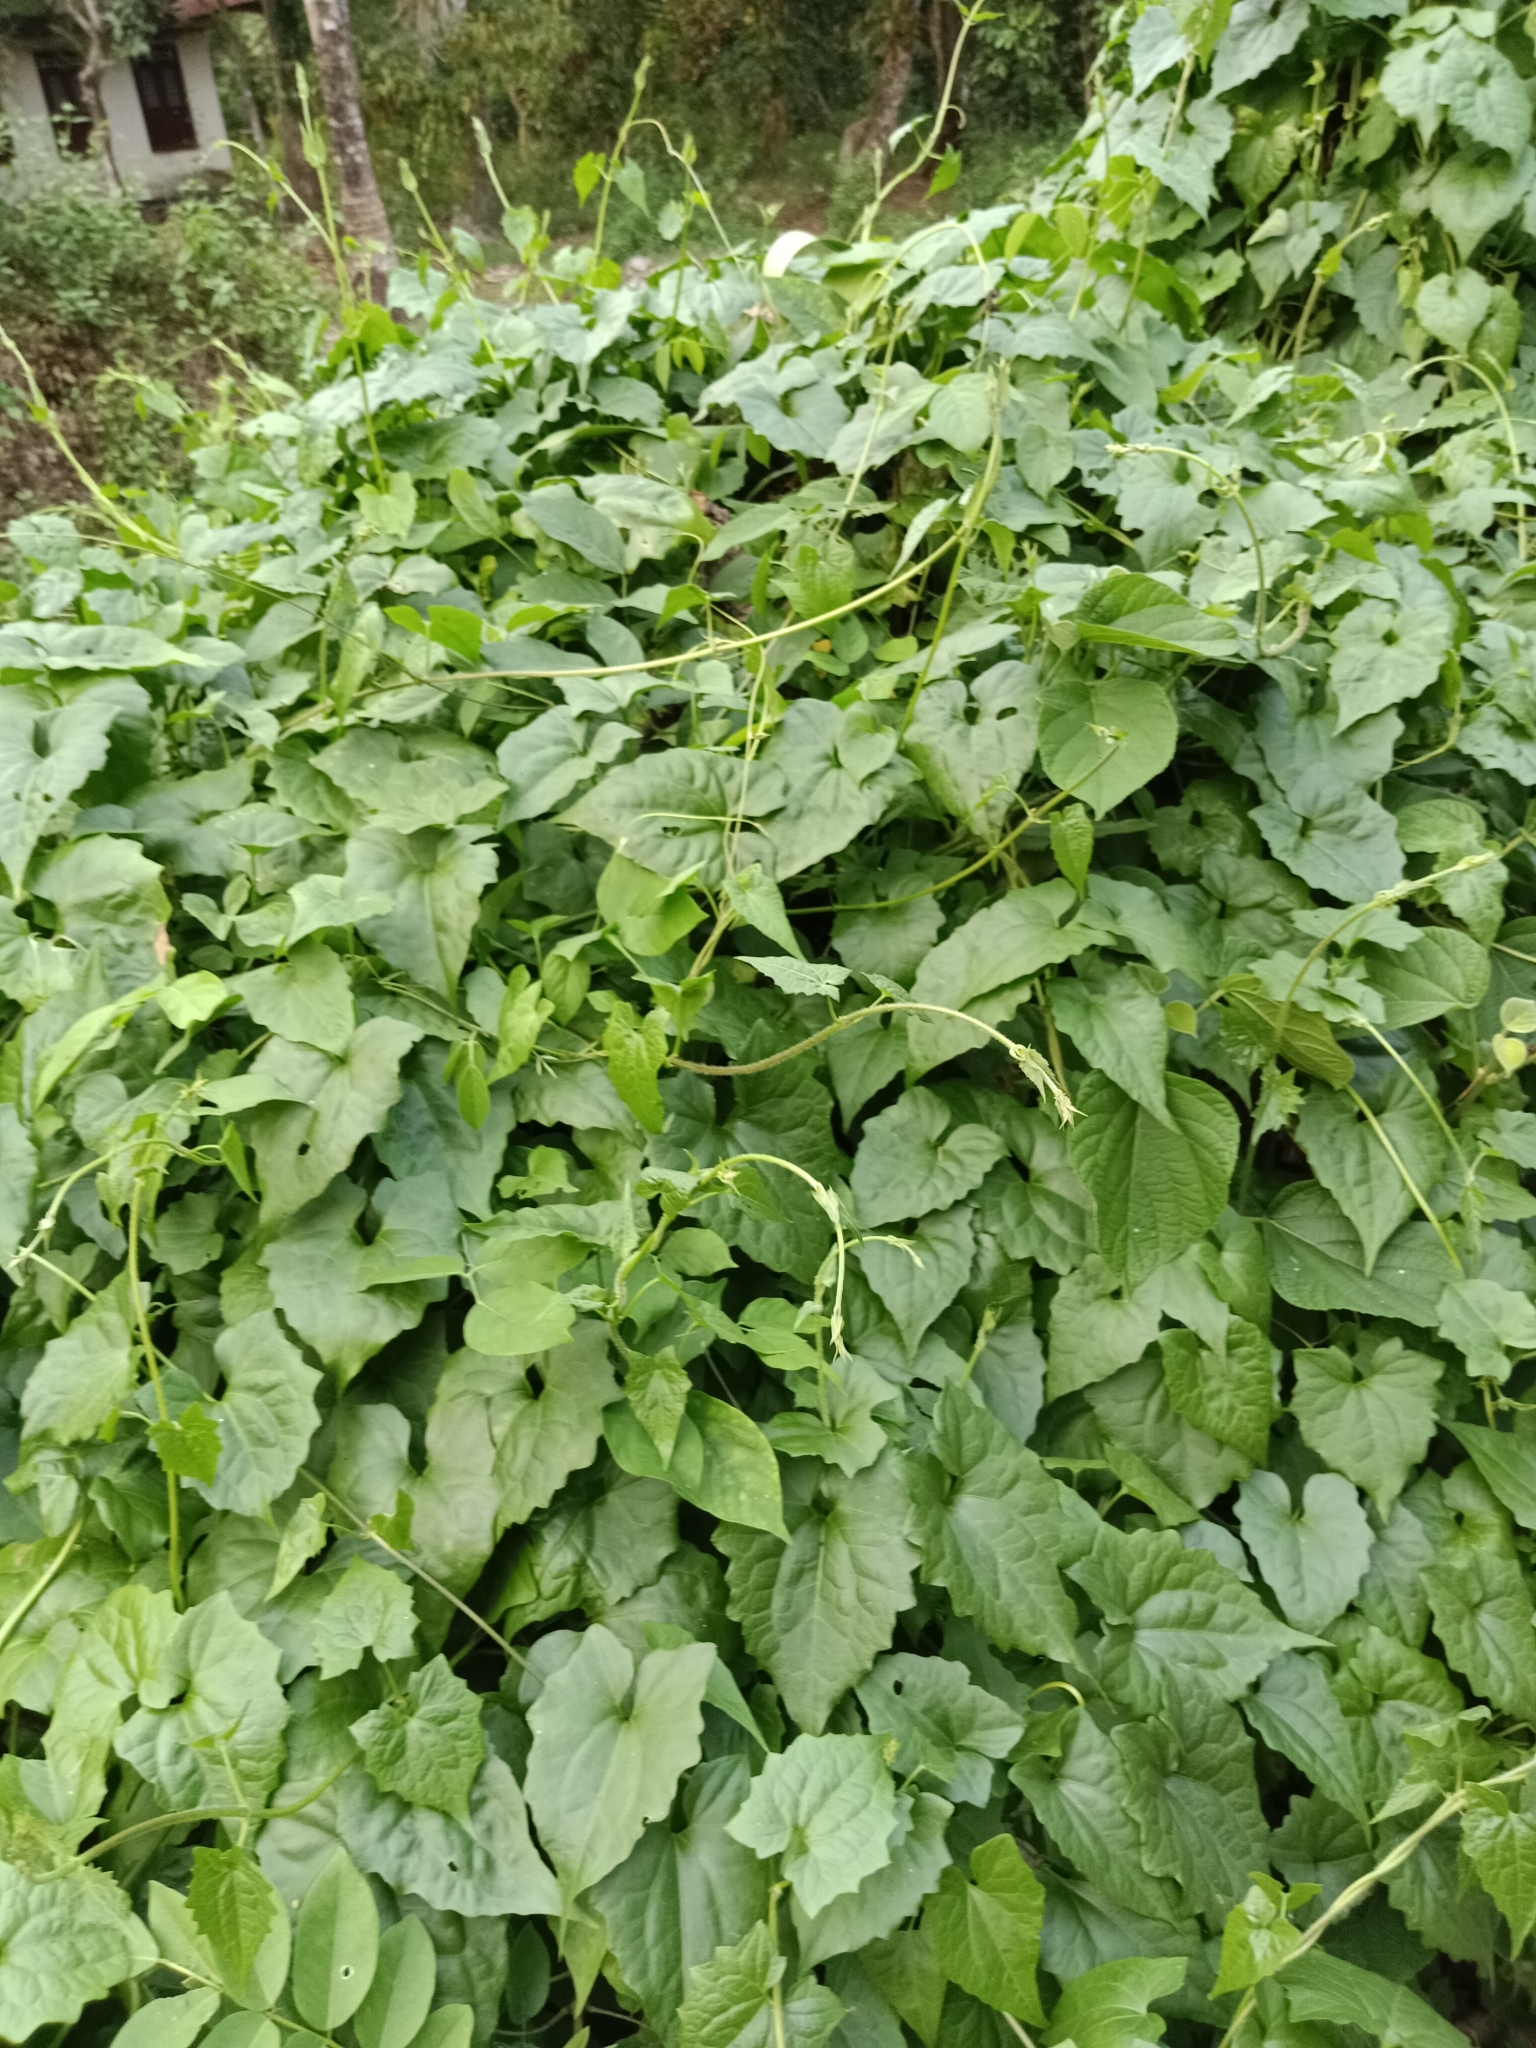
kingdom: Plantae
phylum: Tracheophyta
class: Magnoliopsida
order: Asterales
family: Asteraceae
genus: Mikania
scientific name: Mikania micrantha
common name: Mile-a-minute
